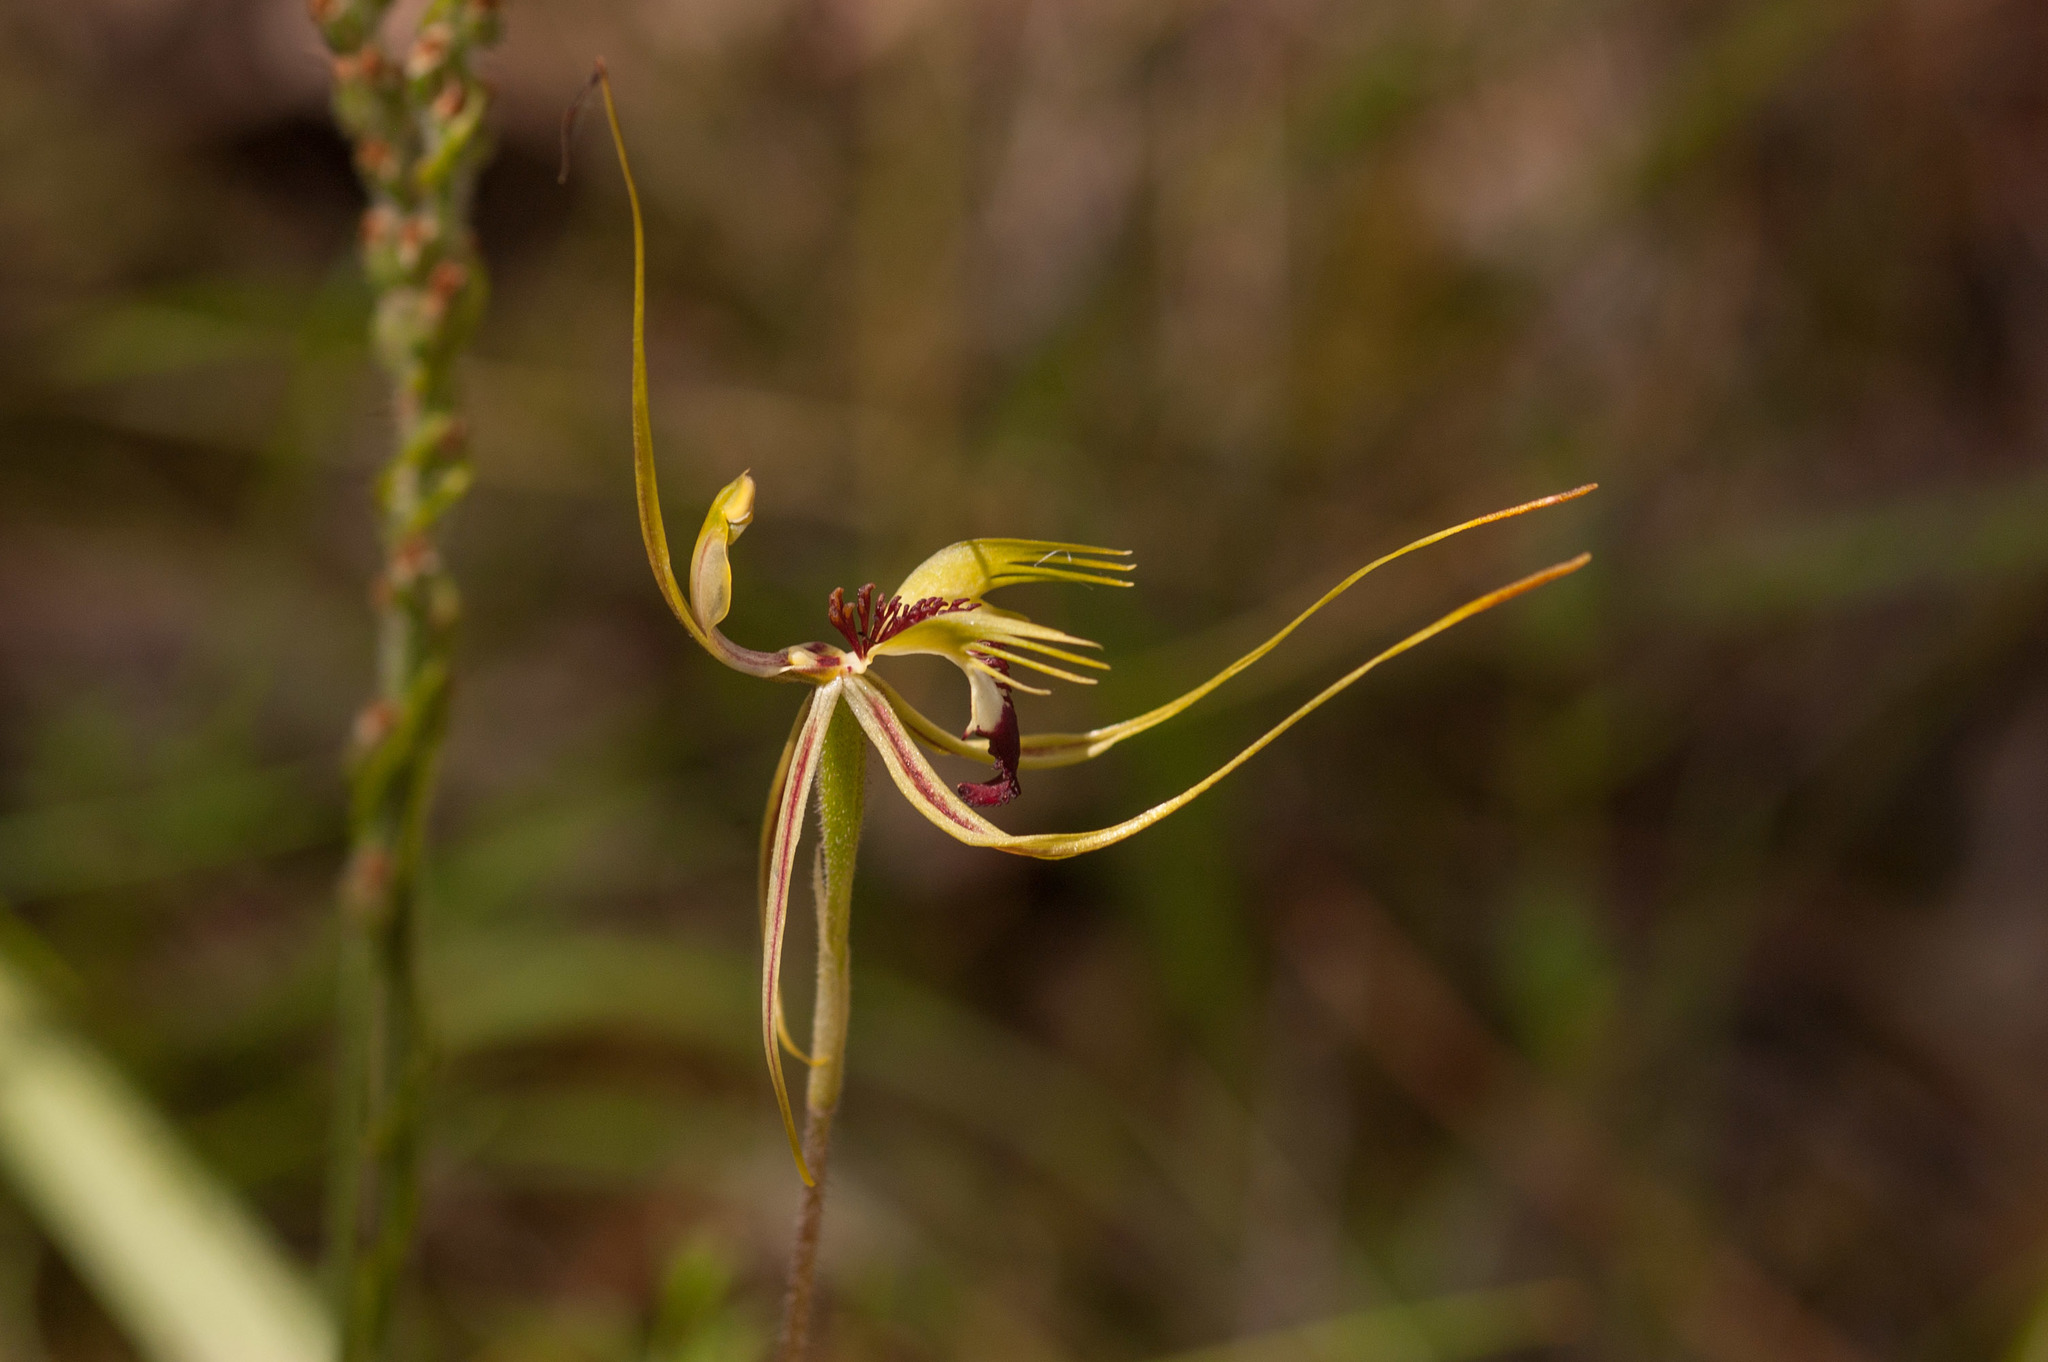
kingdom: Plantae
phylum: Tracheophyta
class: Liliopsida
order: Asparagales
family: Orchidaceae
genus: Caladenia
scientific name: Caladenia tentaculata
